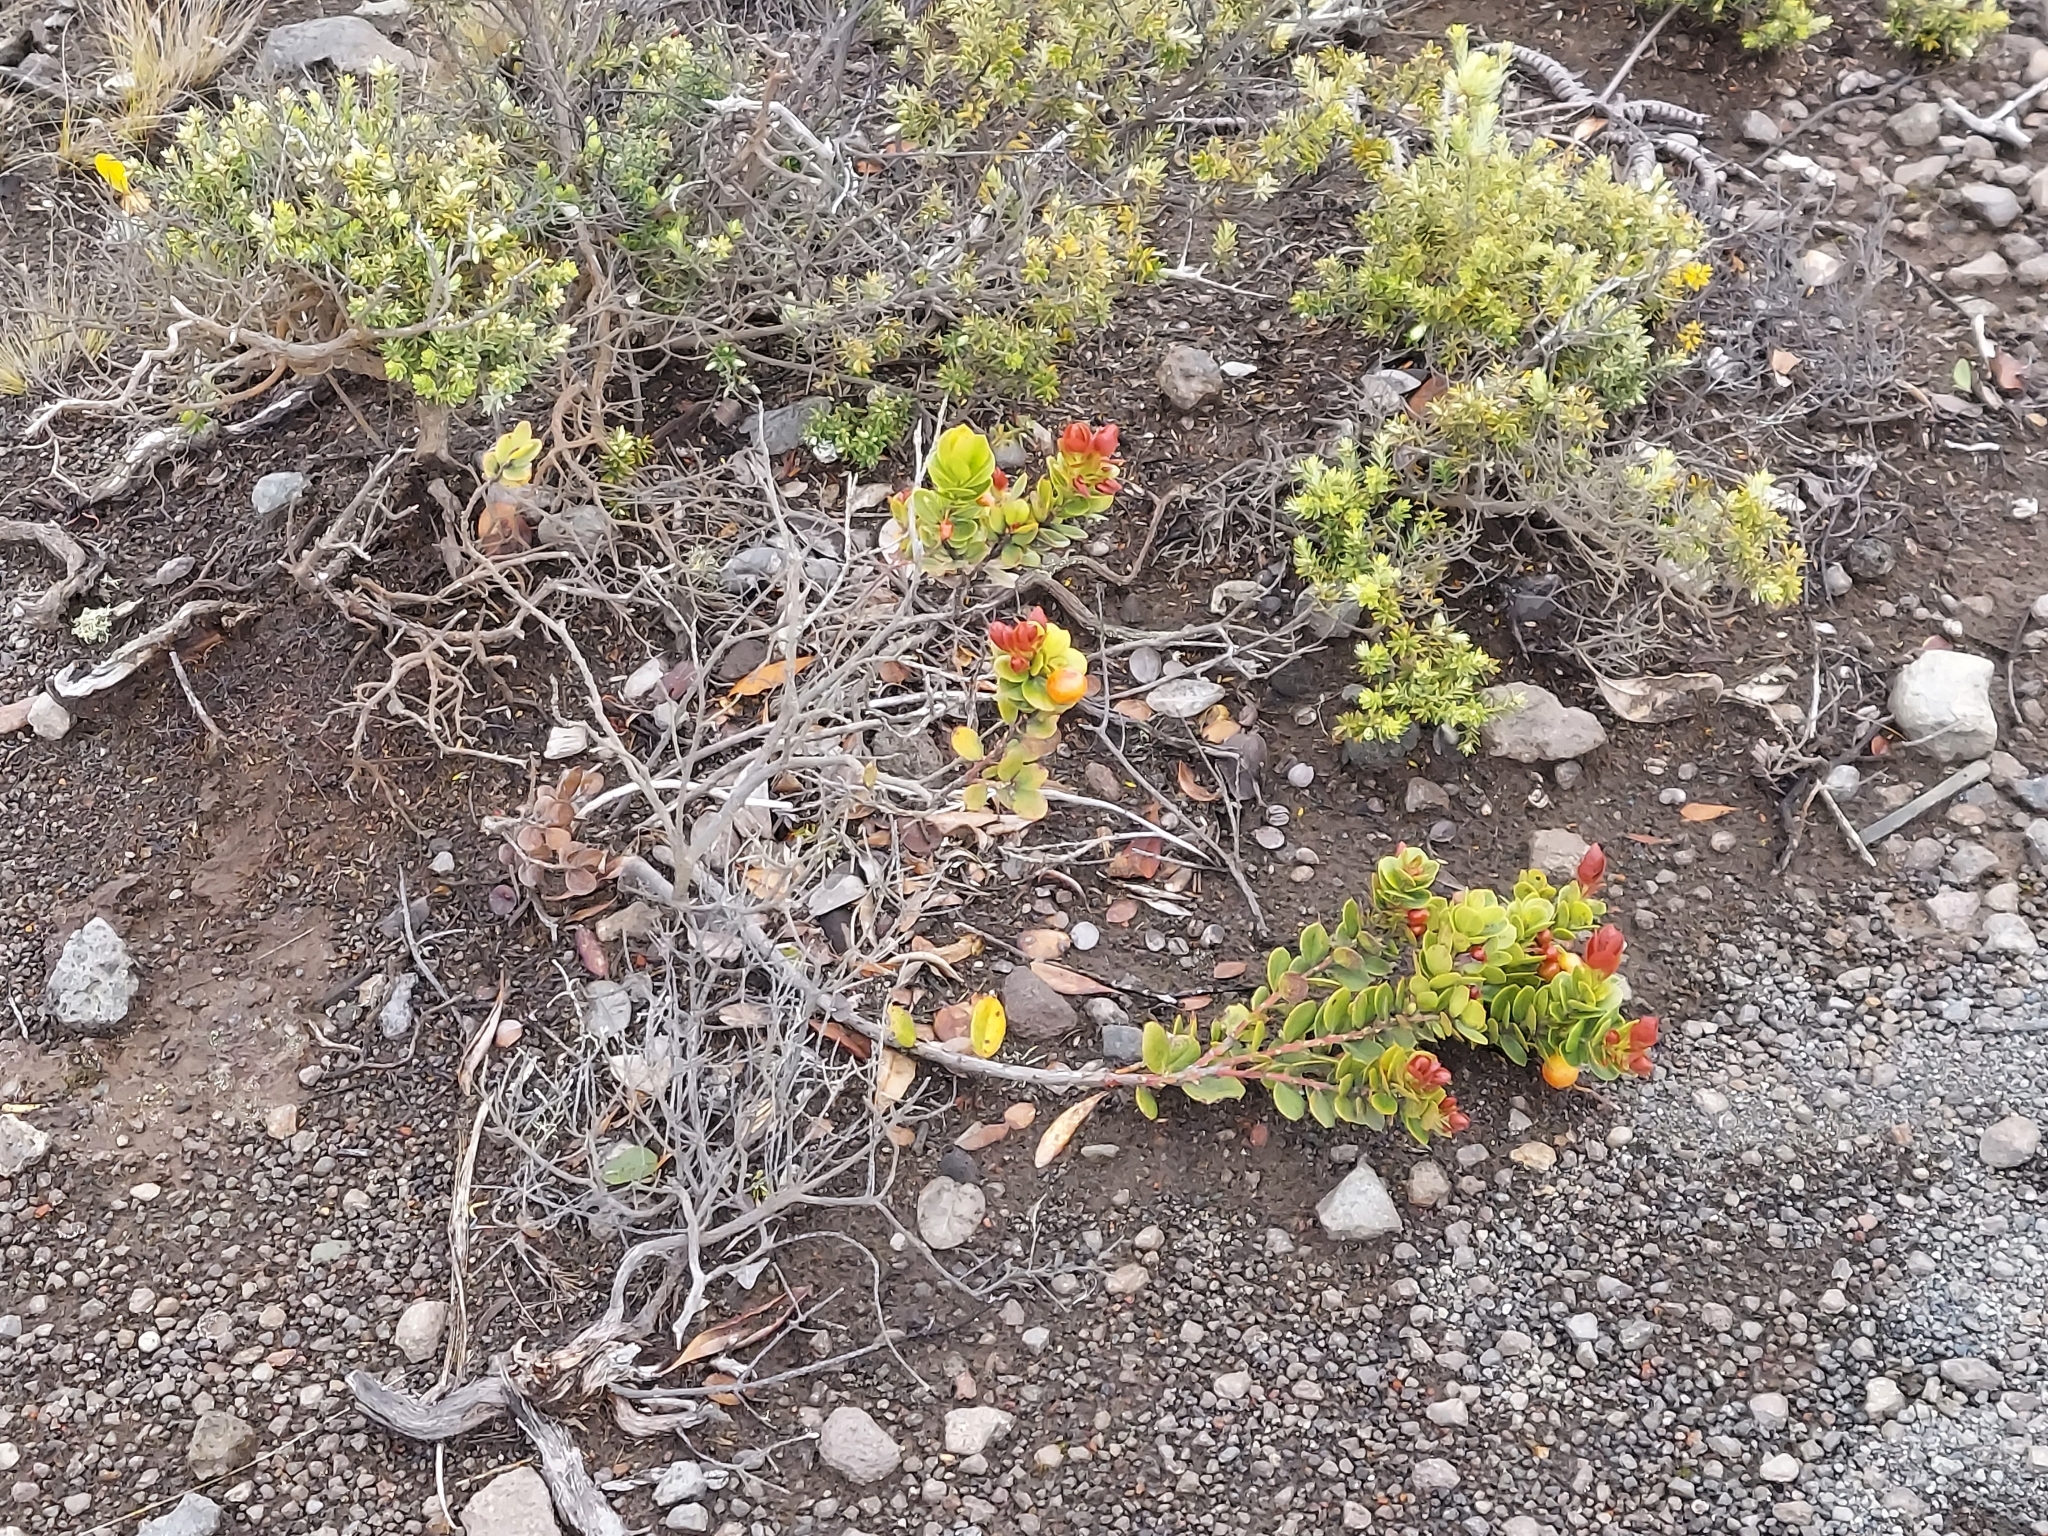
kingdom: Plantae
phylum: Tracheophyta
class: Magnoliopsida
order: Ericales
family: Ericaceae
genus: Vaccinium
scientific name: Vaccinium reticulatum
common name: Ohelo
